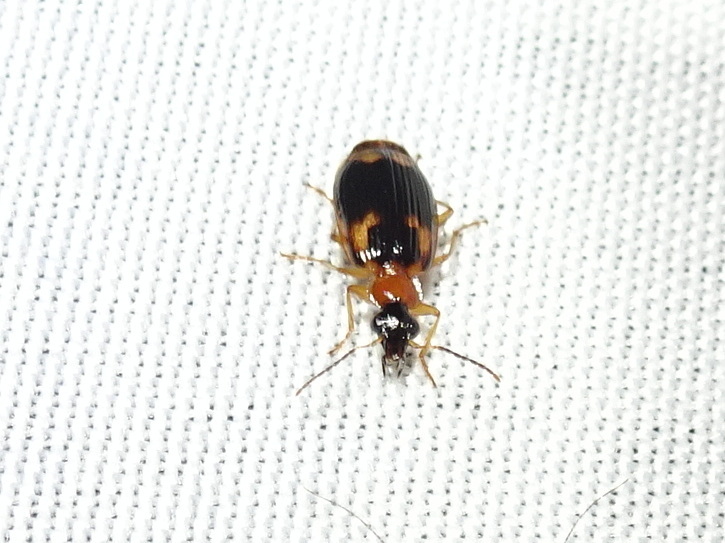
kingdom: Animalia
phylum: Arthropoda
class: Insecta
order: Coleoptera
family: Carabidae
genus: Lebia
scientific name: Lebia analis
